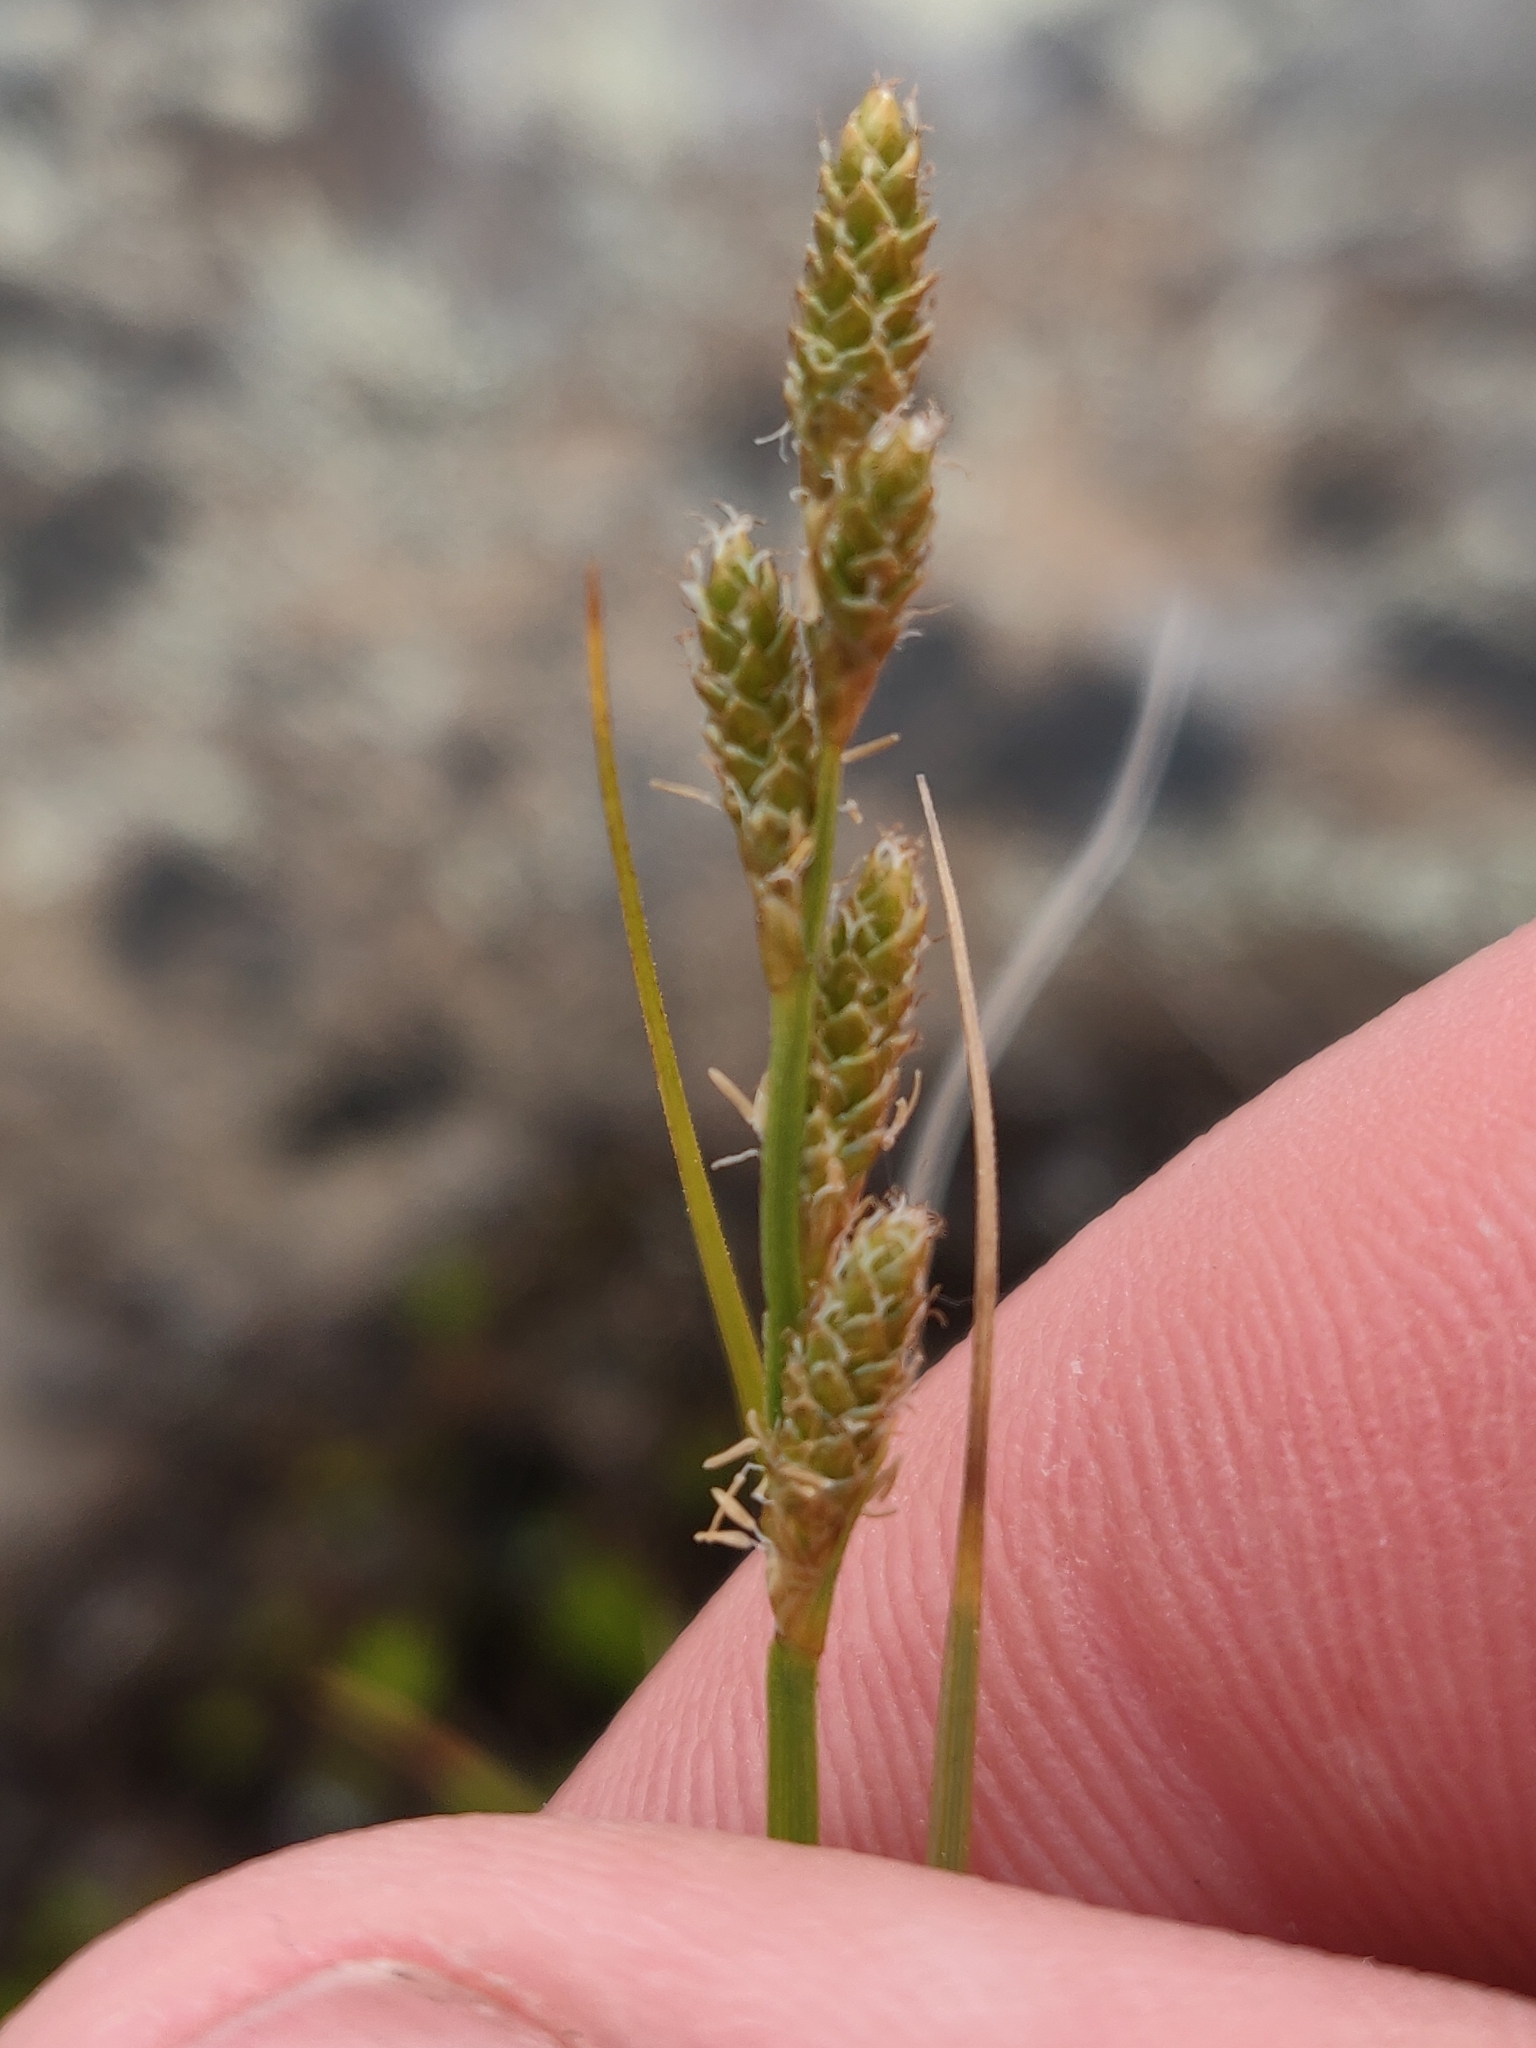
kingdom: Plantae
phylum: Tracheophyta
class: Liliopsida
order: Poales
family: Cyperaceae
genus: Carex
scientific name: Carex canescens
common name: White sedge
